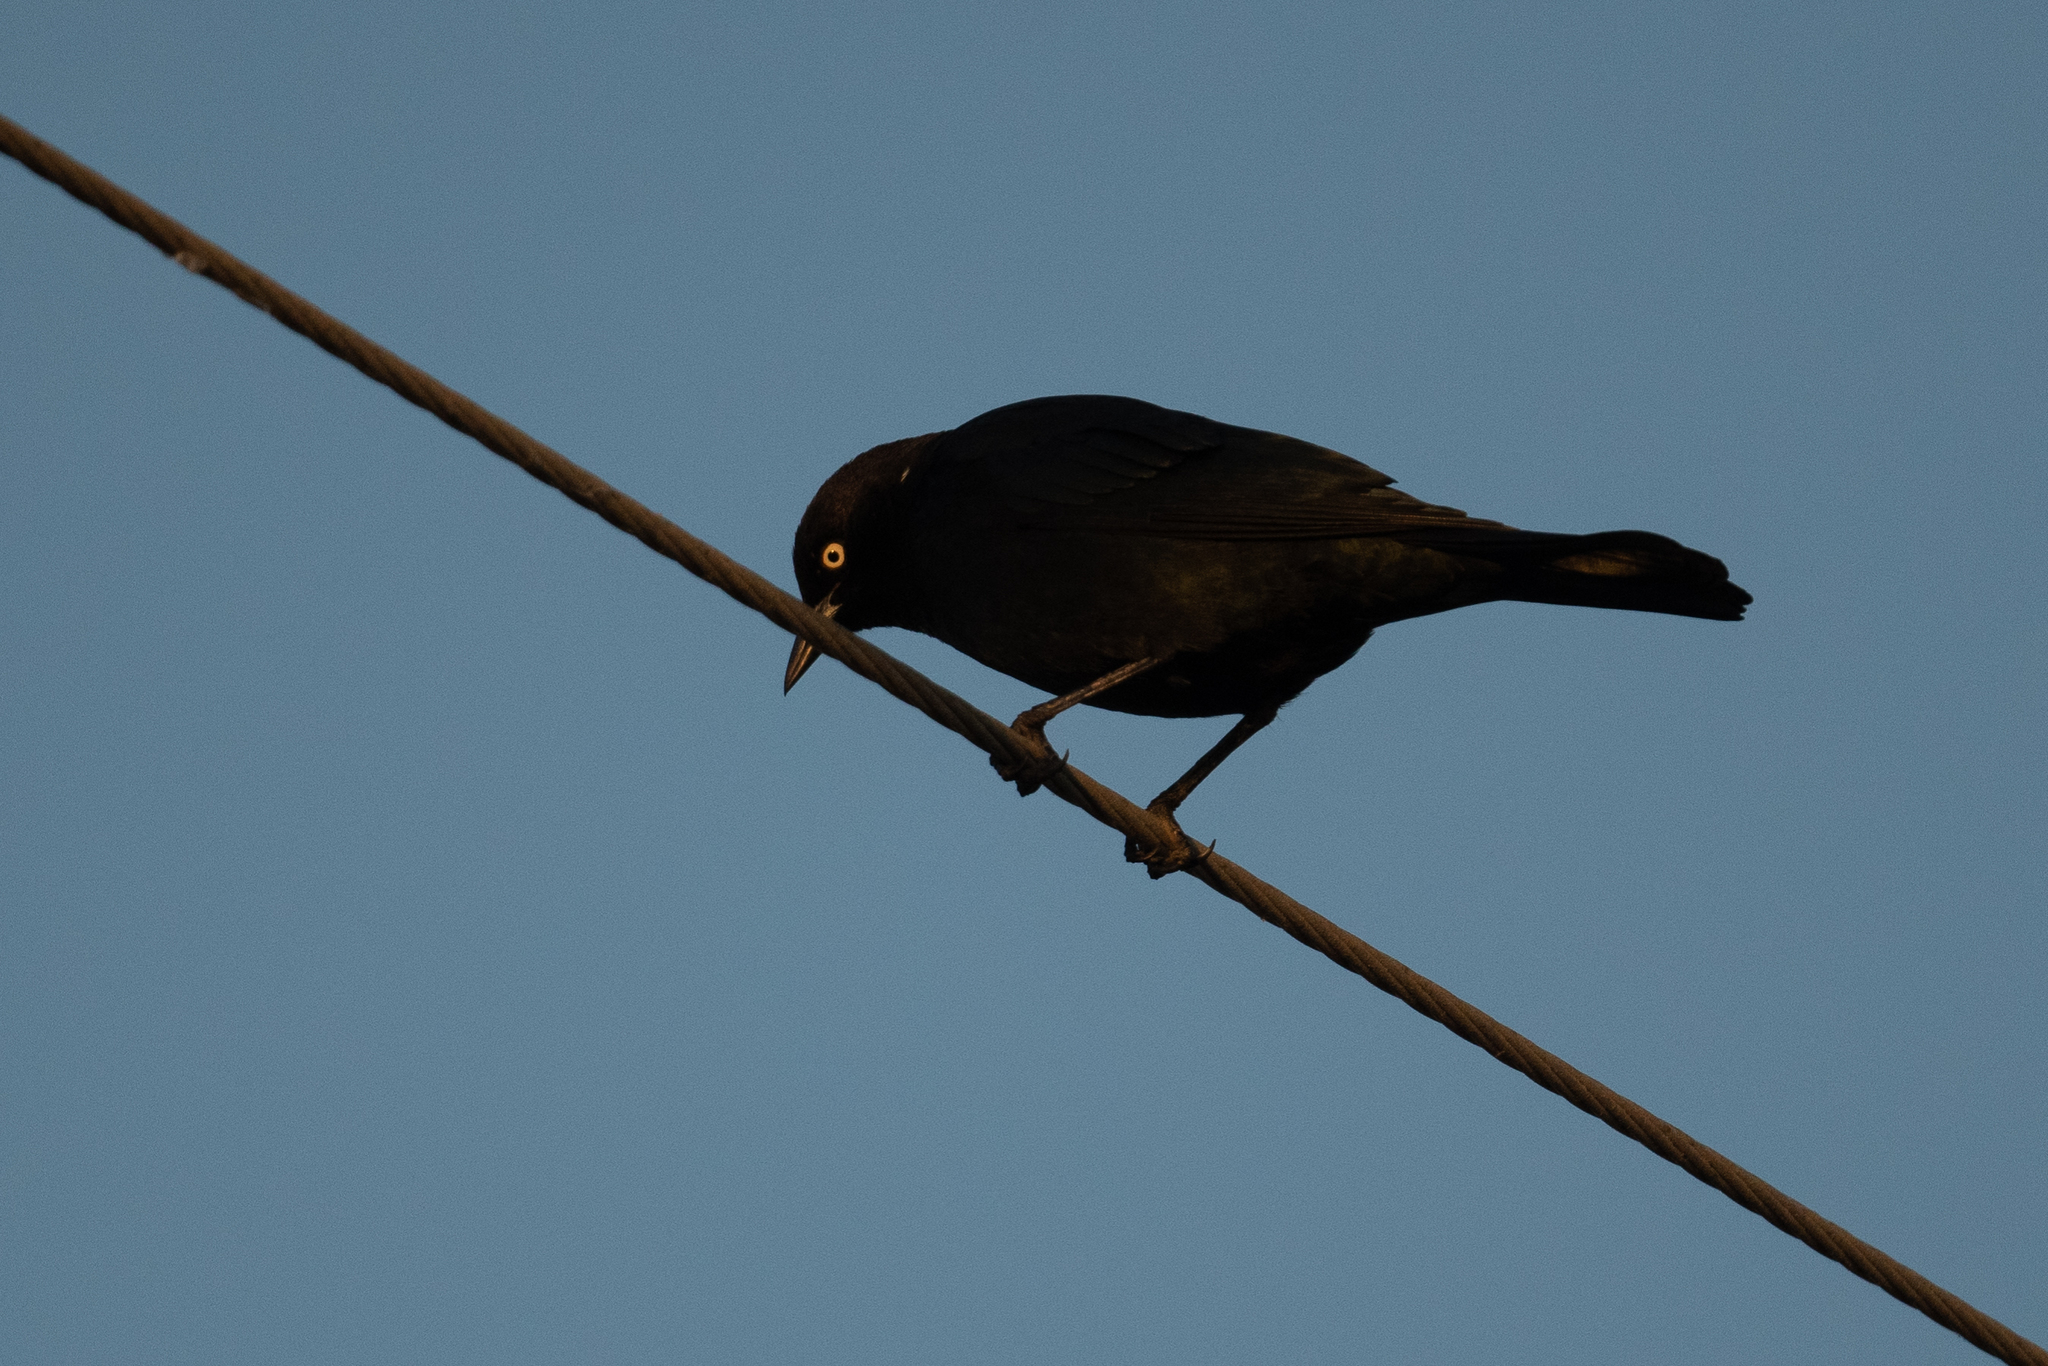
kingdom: Animalia
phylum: Chordata
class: Aves
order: Passeriformes
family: Icteridae
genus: Euphagus
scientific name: Euphagus cyanocephalus
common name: Brewer's blackbird
